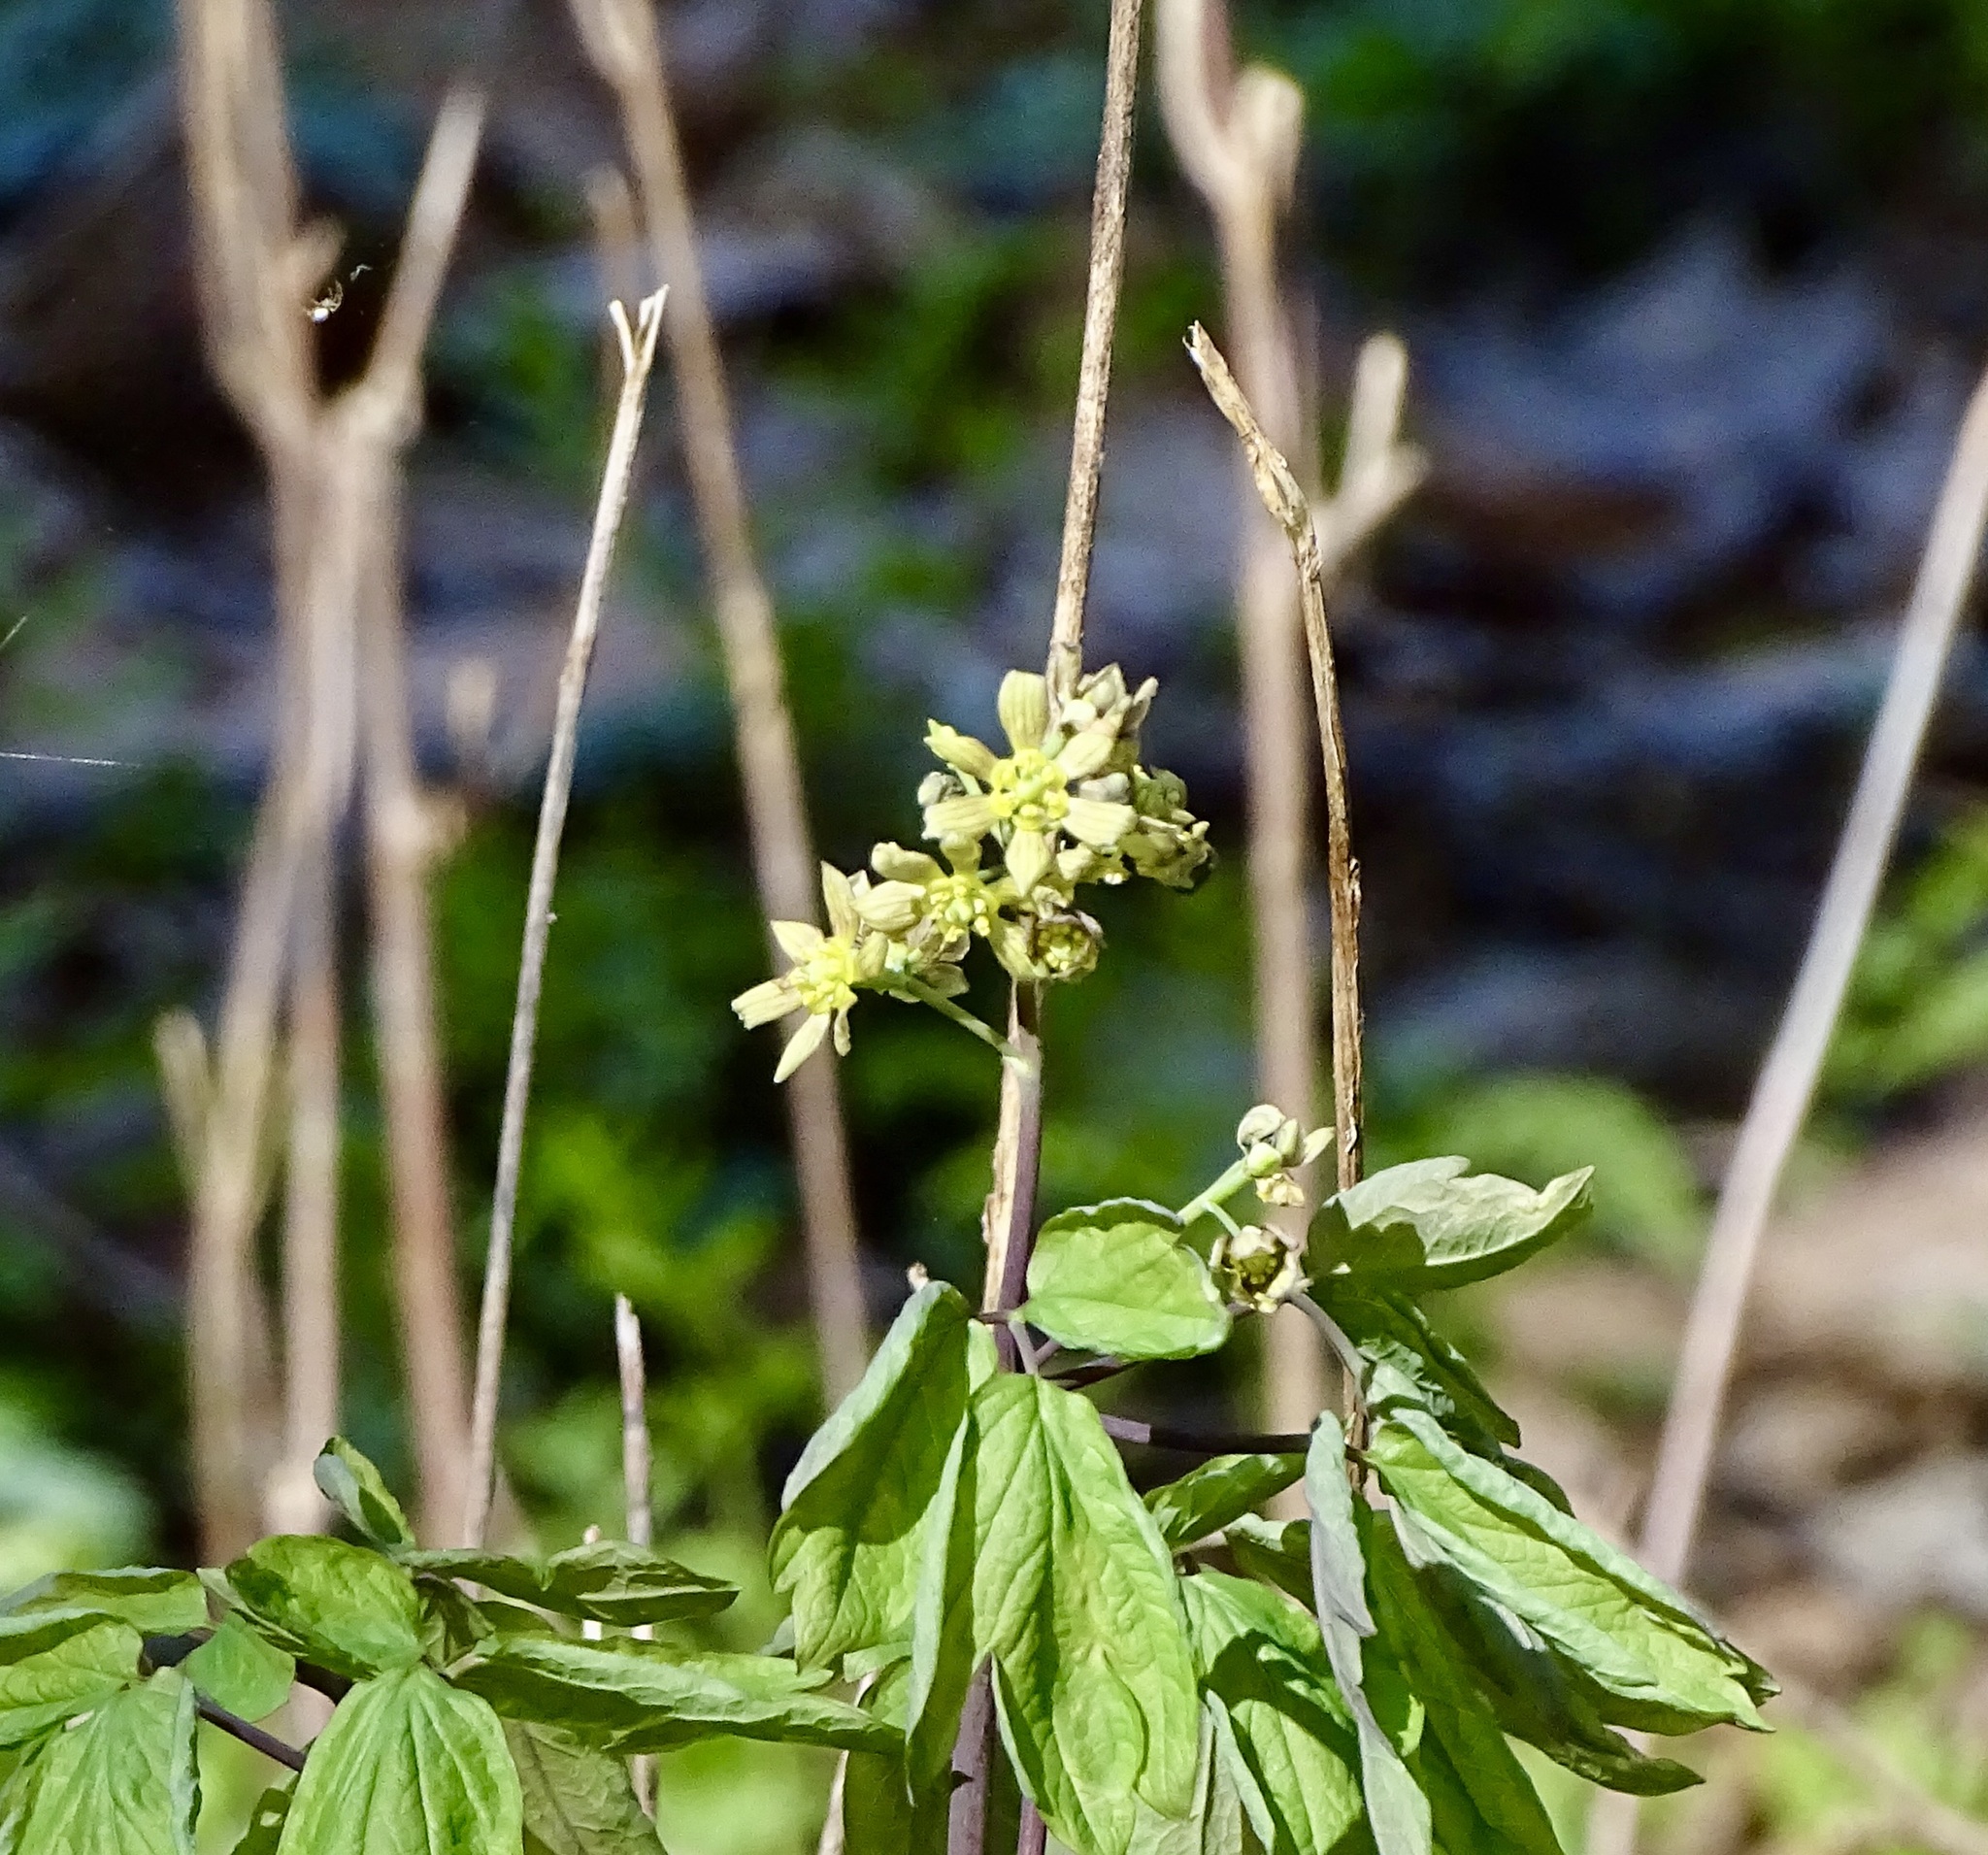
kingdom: Plantae
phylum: Tracheophyta
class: Magnoliopsida
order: Ranunculales
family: Berberidaceae
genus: Caulophyllum
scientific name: Caulophyllum thalictroides
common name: Blue cohosh
